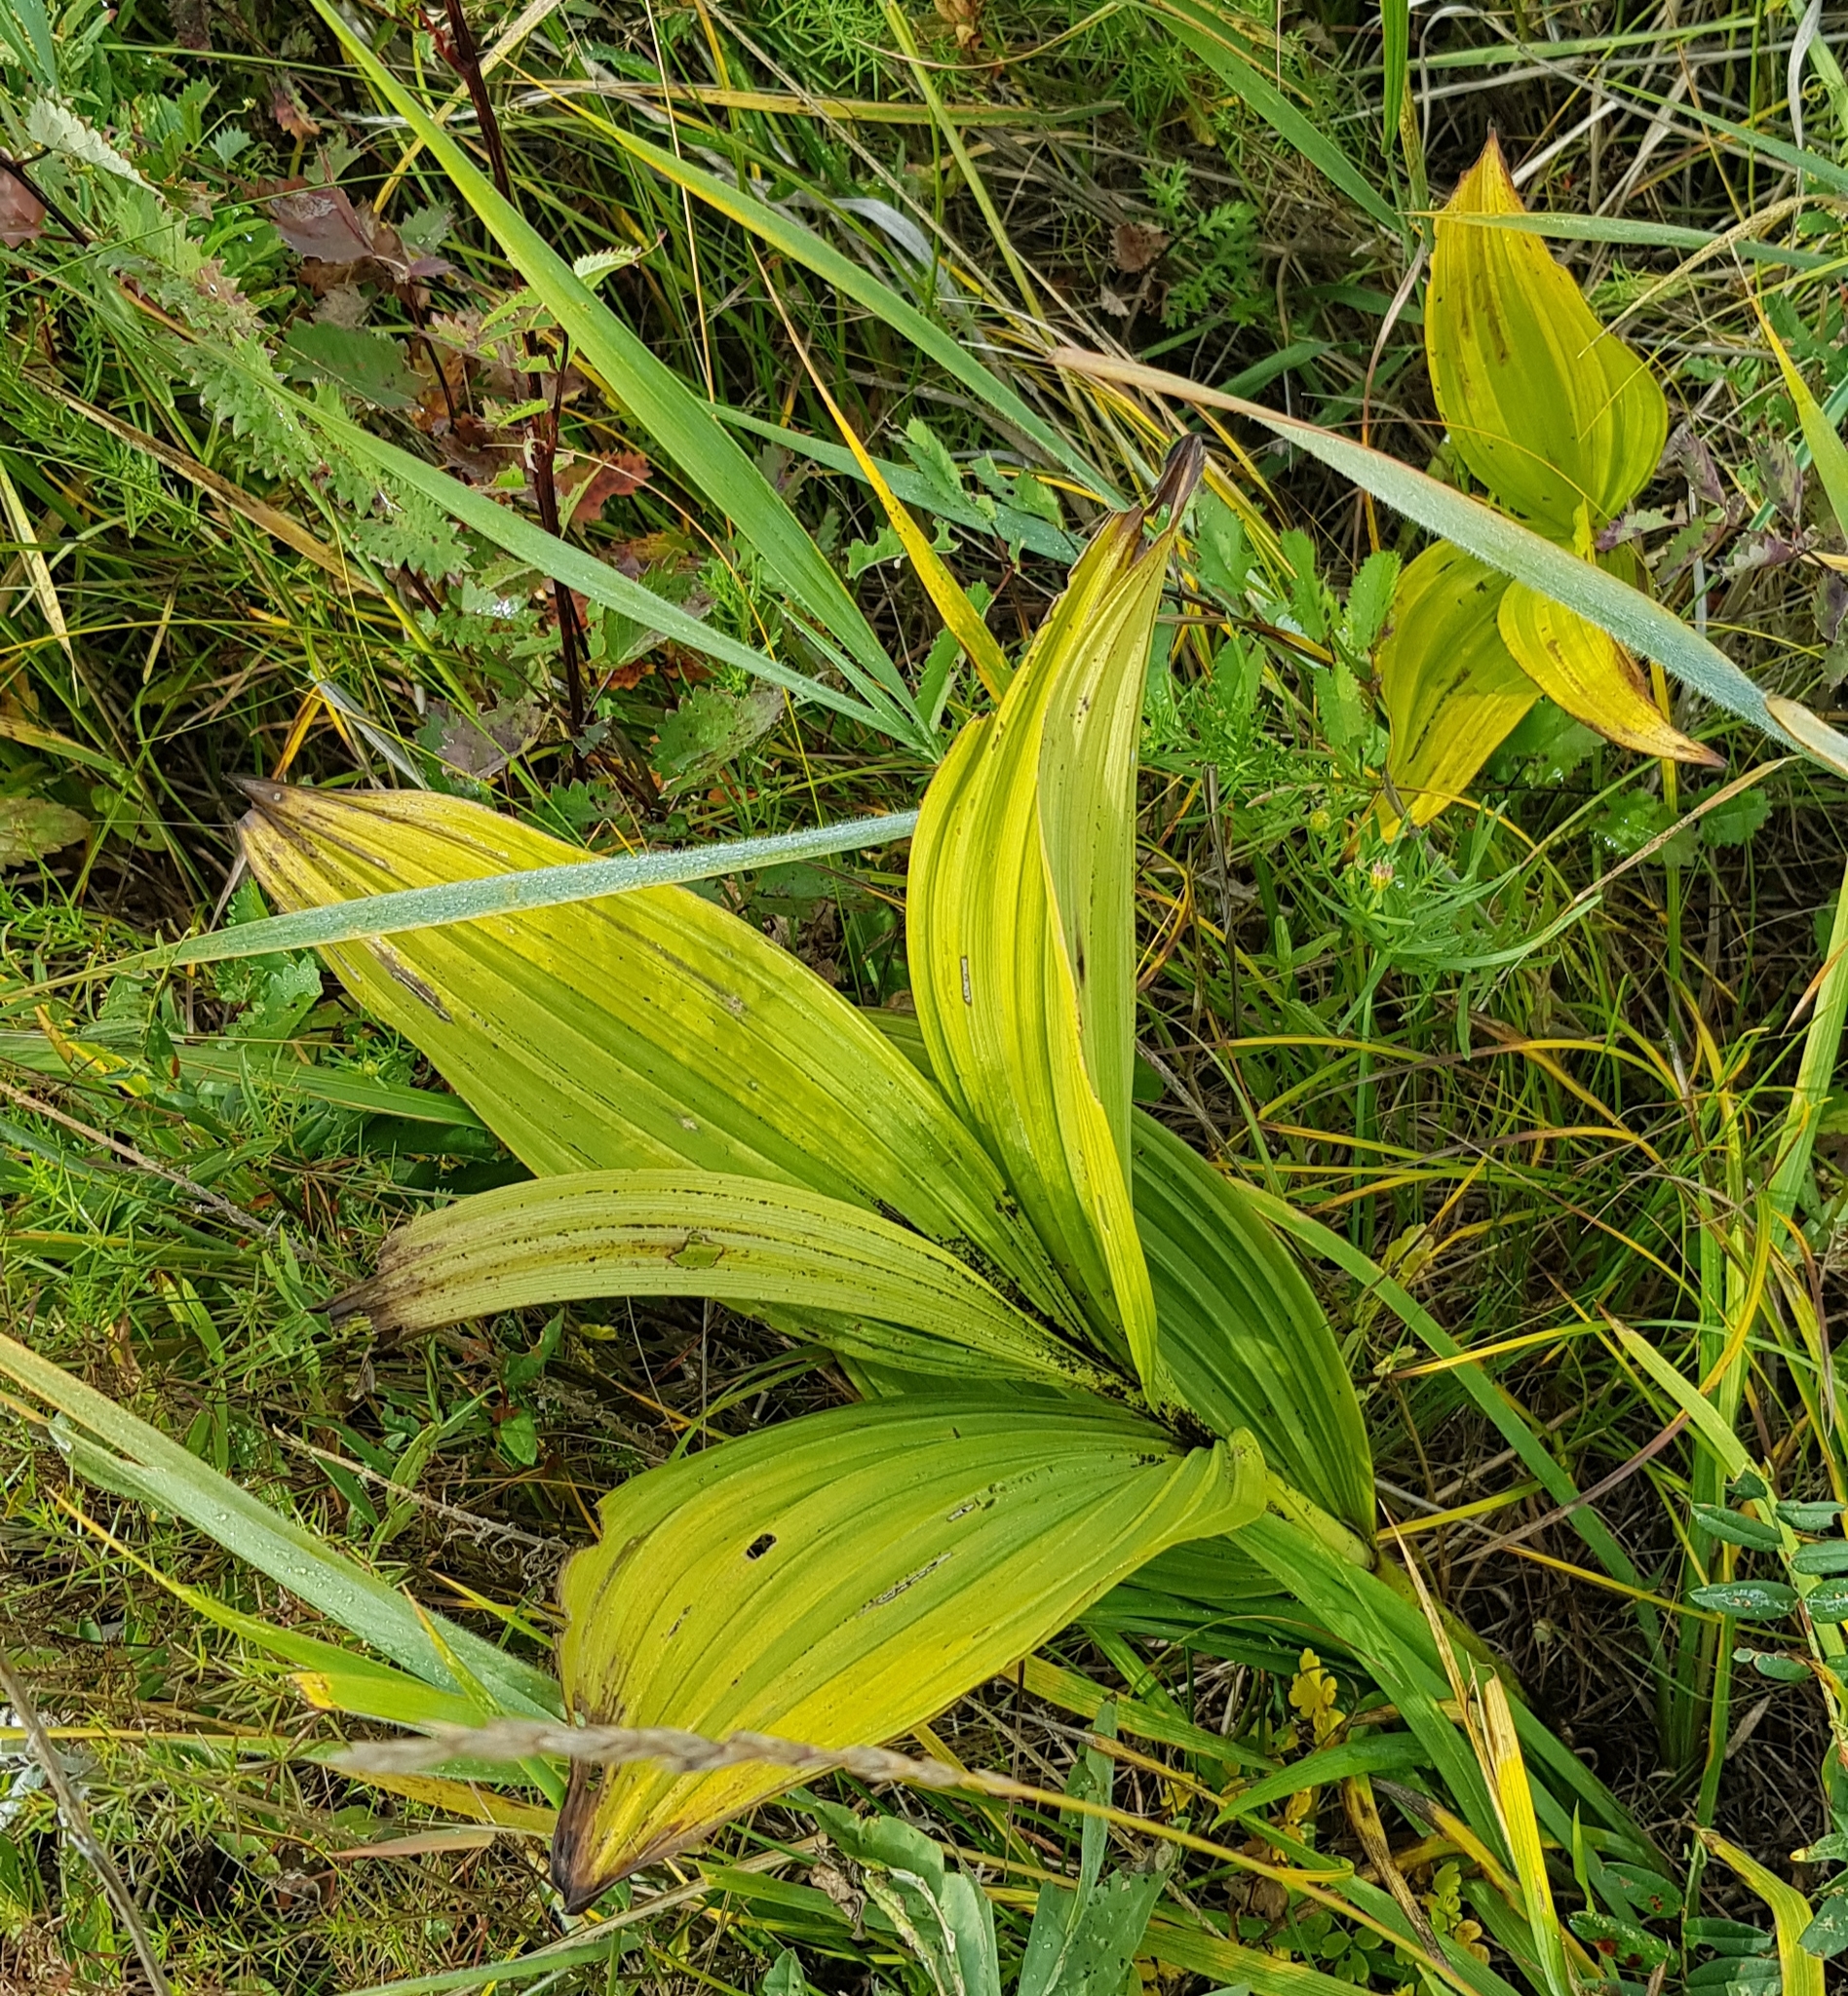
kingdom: Plantae
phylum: Tracheophyta
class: Liliopsida
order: Liliales
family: Melanthiaceae
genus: Veratrum
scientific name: Veratrum lobelianum
